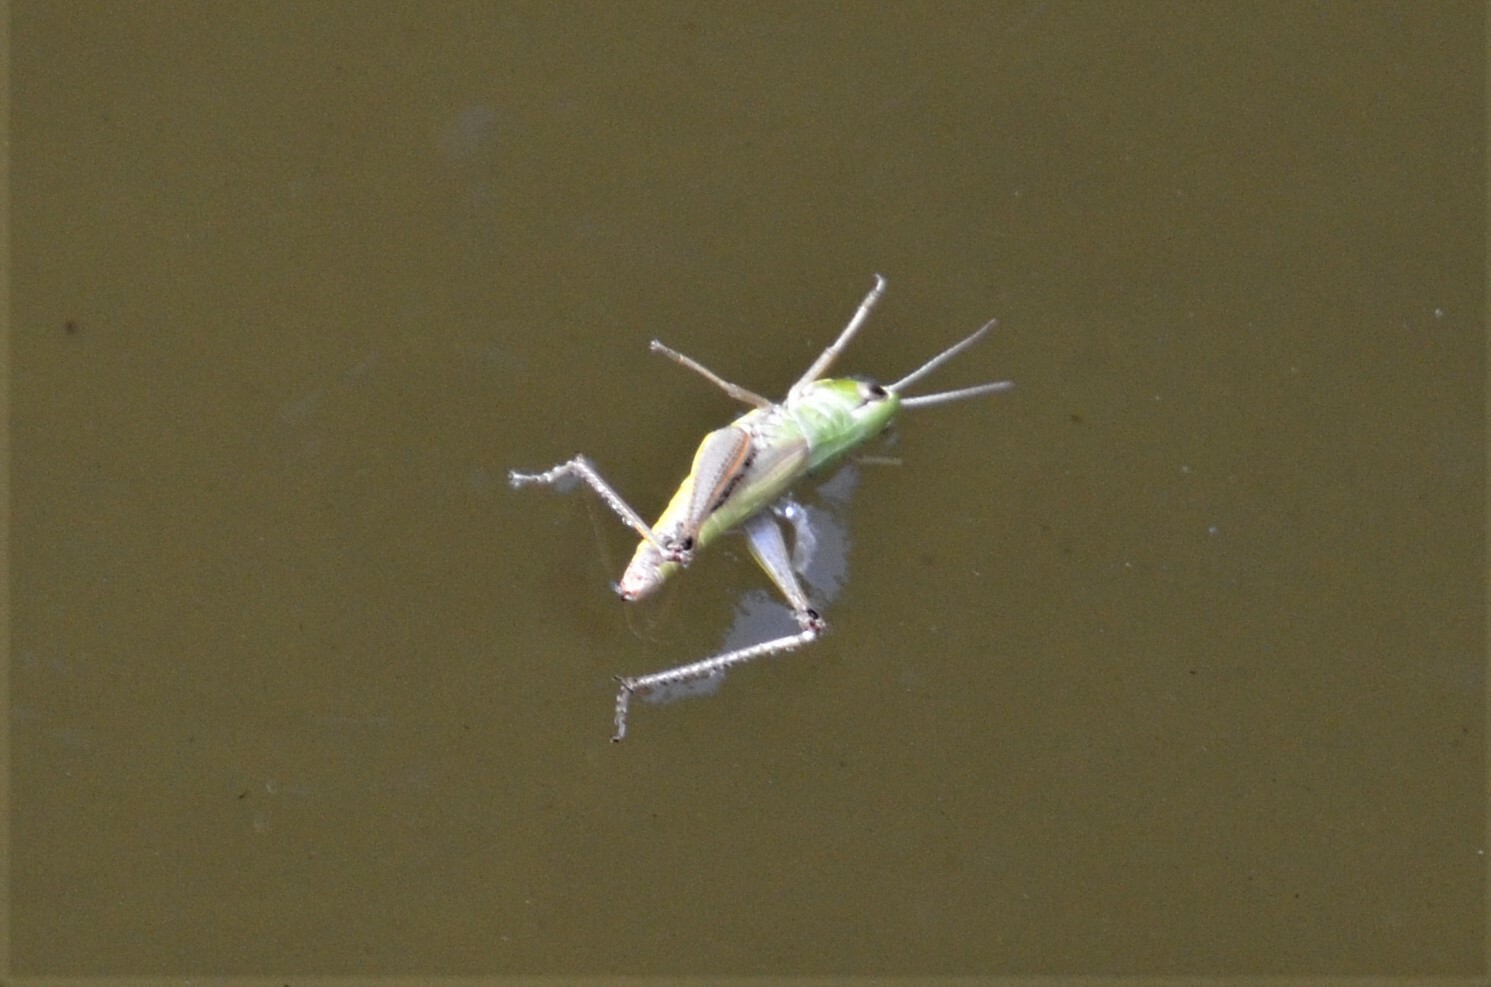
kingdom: Animalia
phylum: Arthropoda
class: Insecta
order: Orthoptera
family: Acrididae
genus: Pseudochorthippus
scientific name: Pseudochorthippus parallelus
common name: Meadow grasshopper
